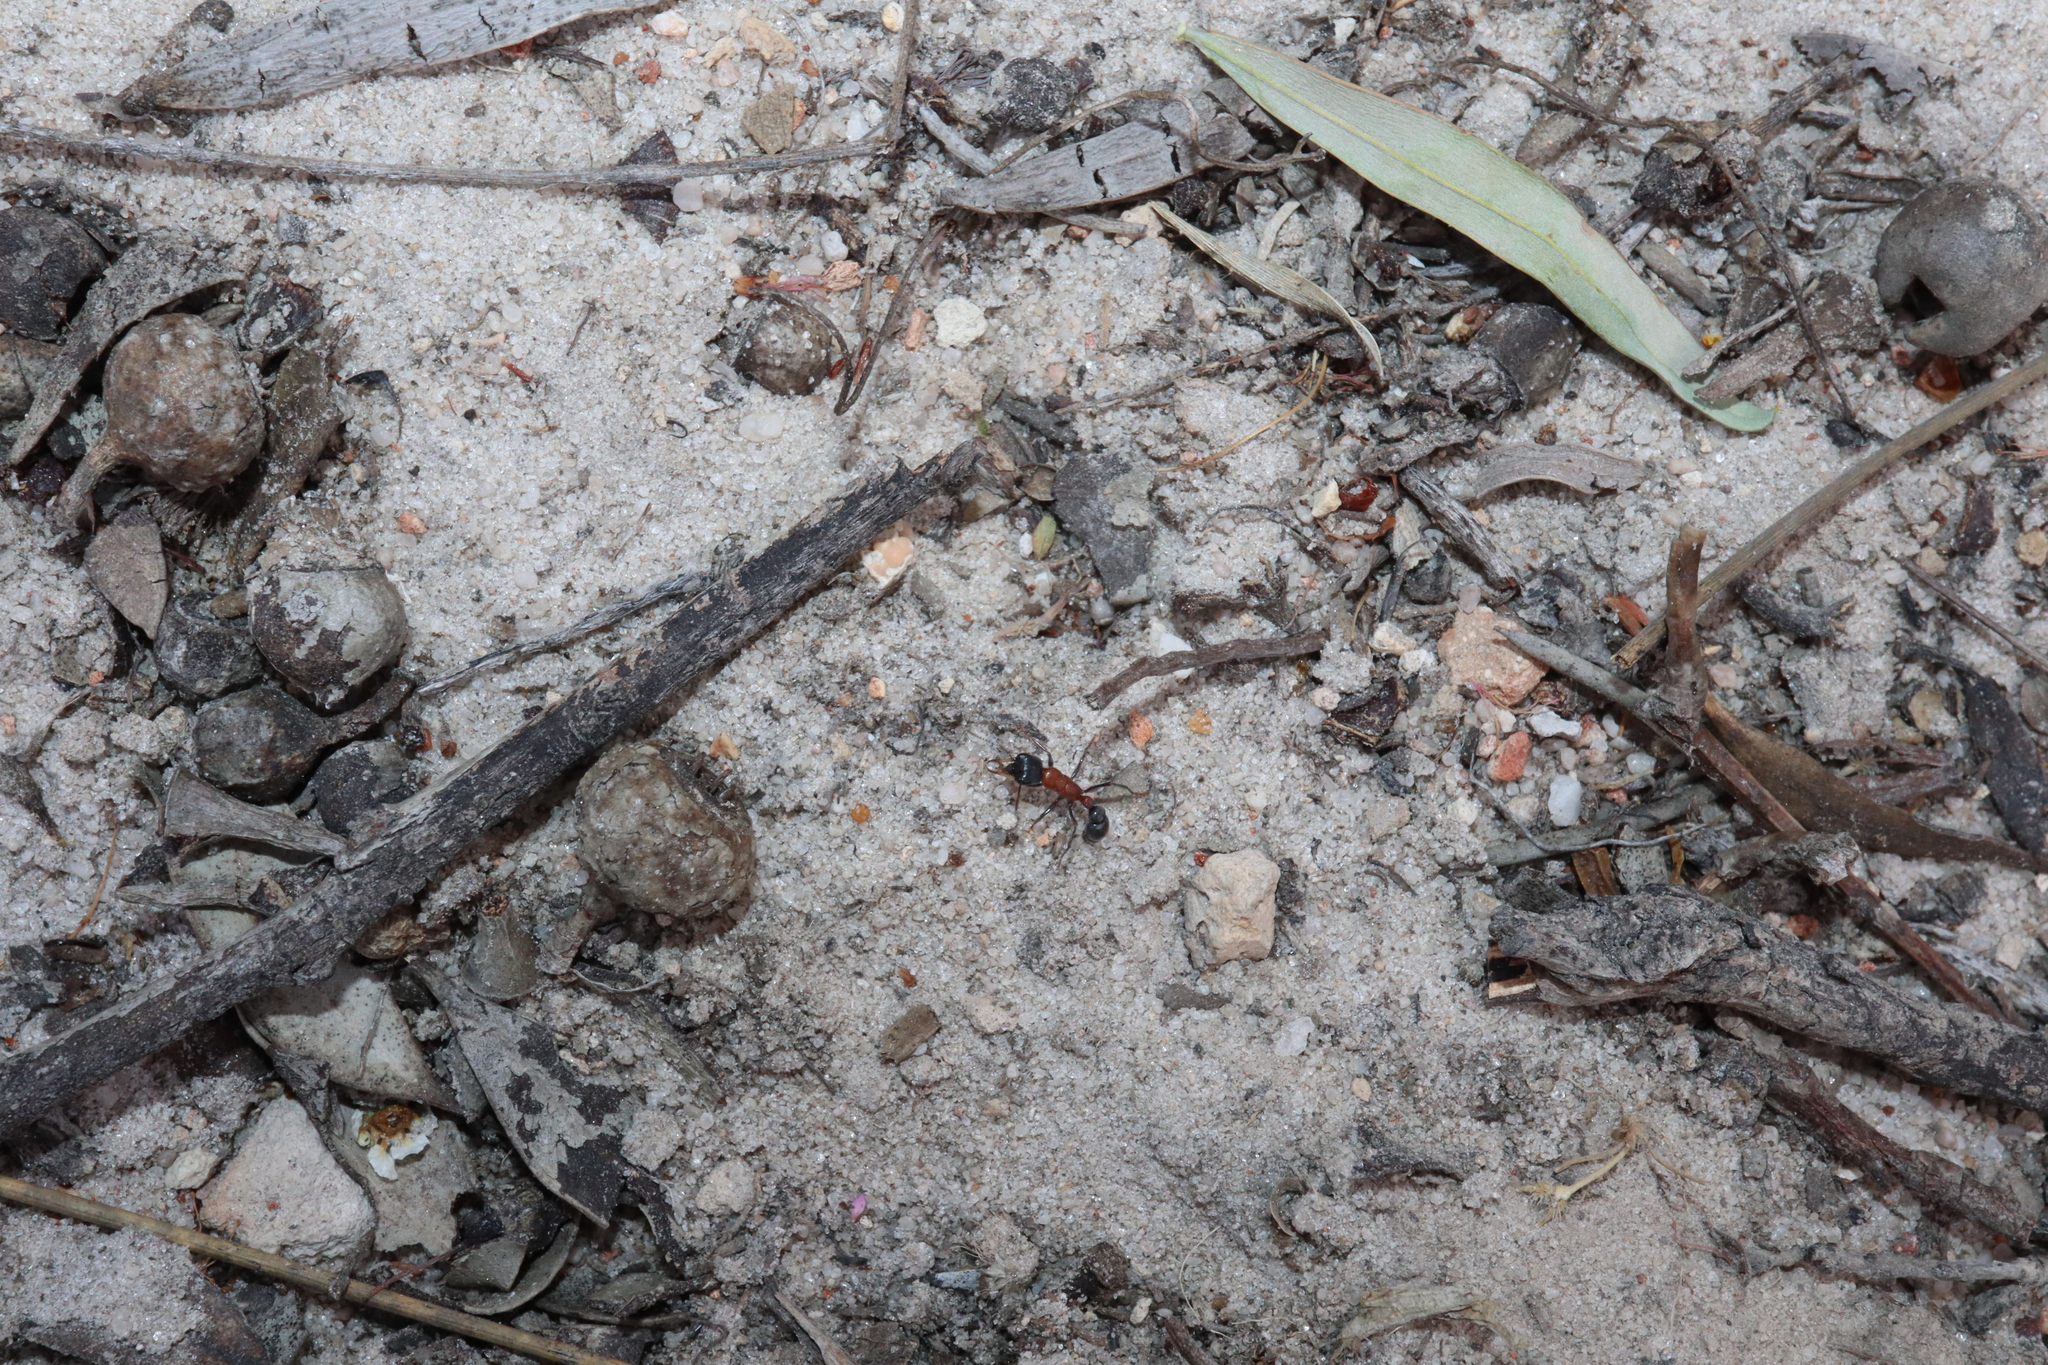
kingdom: Animalia
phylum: Arthropoda
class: Insecta
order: Hymenoptera
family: Formicidae
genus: Myrmecia
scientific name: Myrmecia swalei
